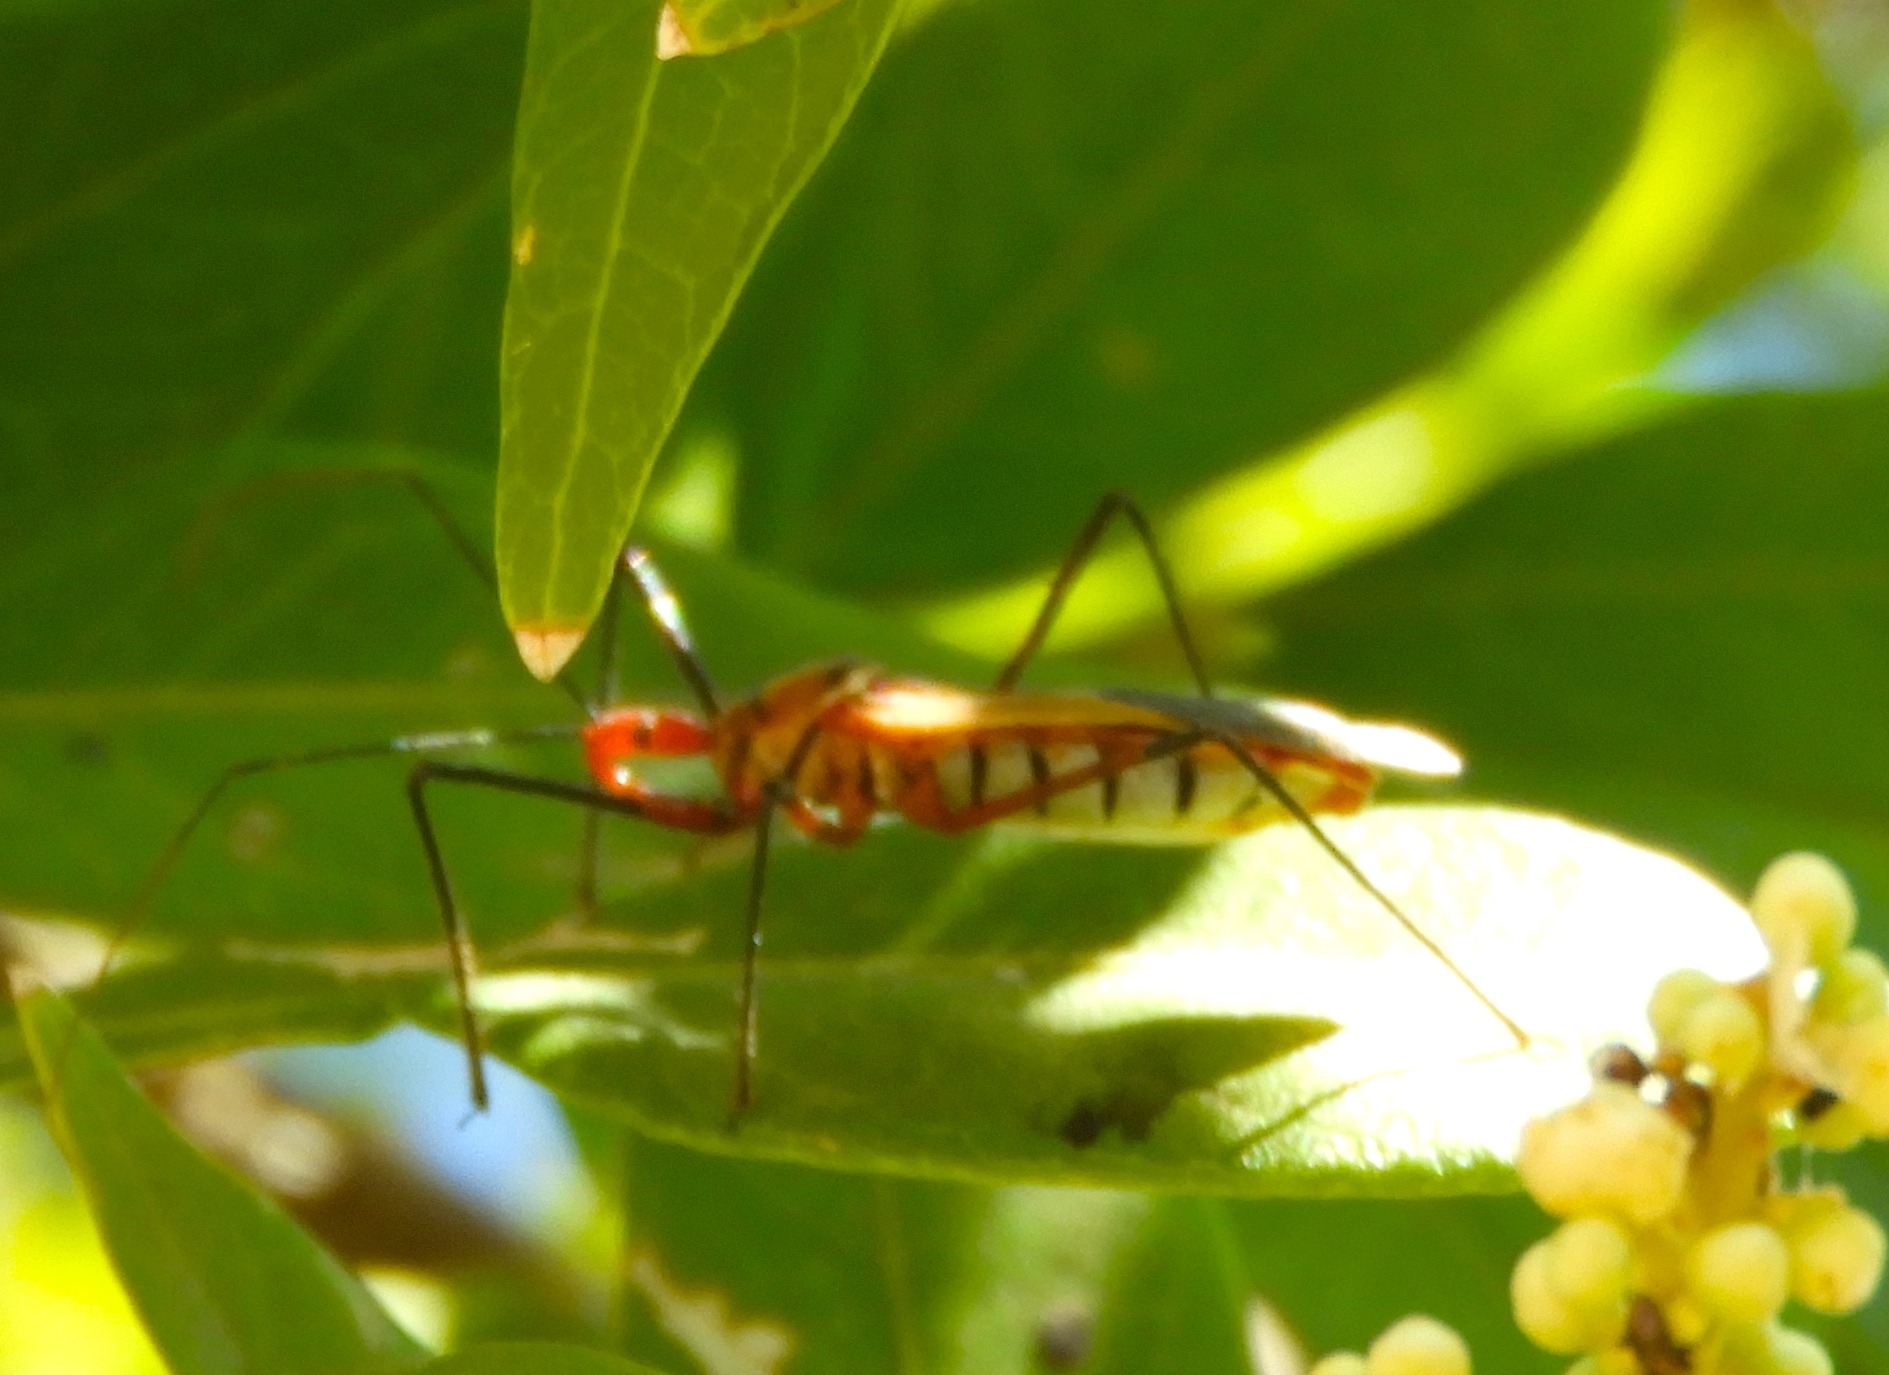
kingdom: Animalia
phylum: Arthropoda
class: Insecta
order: Hemiptera
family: Reduviidae
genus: Zelus
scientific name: Zelus grassans
